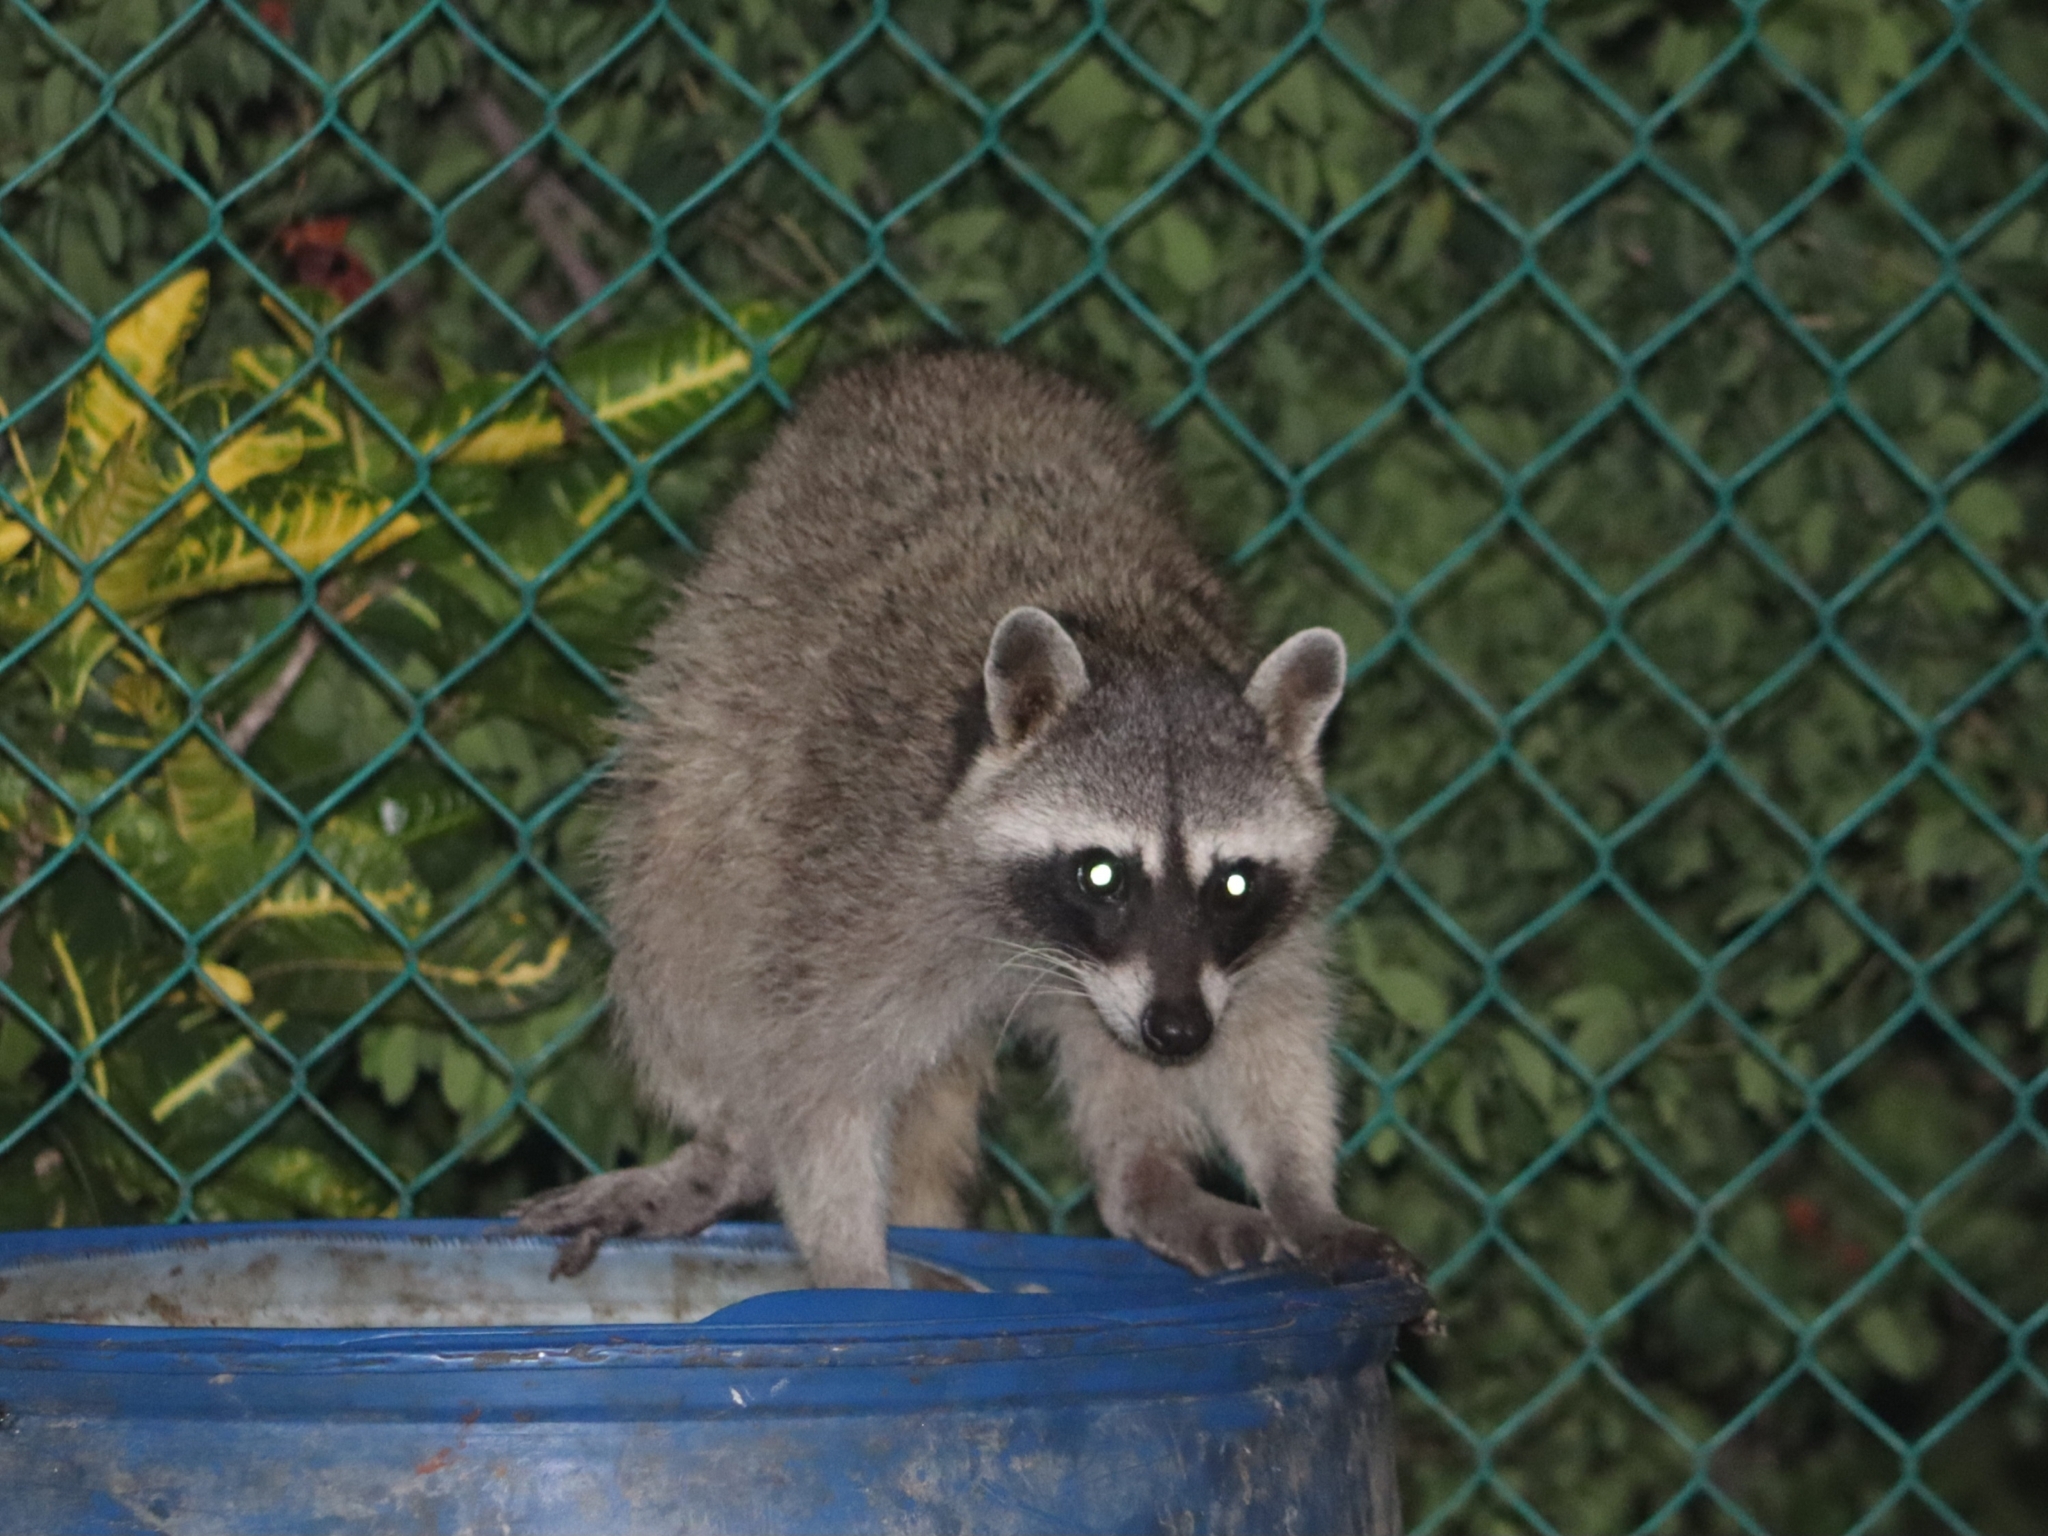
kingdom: Animalia
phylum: Chordata
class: Mammalia
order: Carnivora
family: Procyonidae
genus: Procyon
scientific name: Procyon lotor
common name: Raccoon
